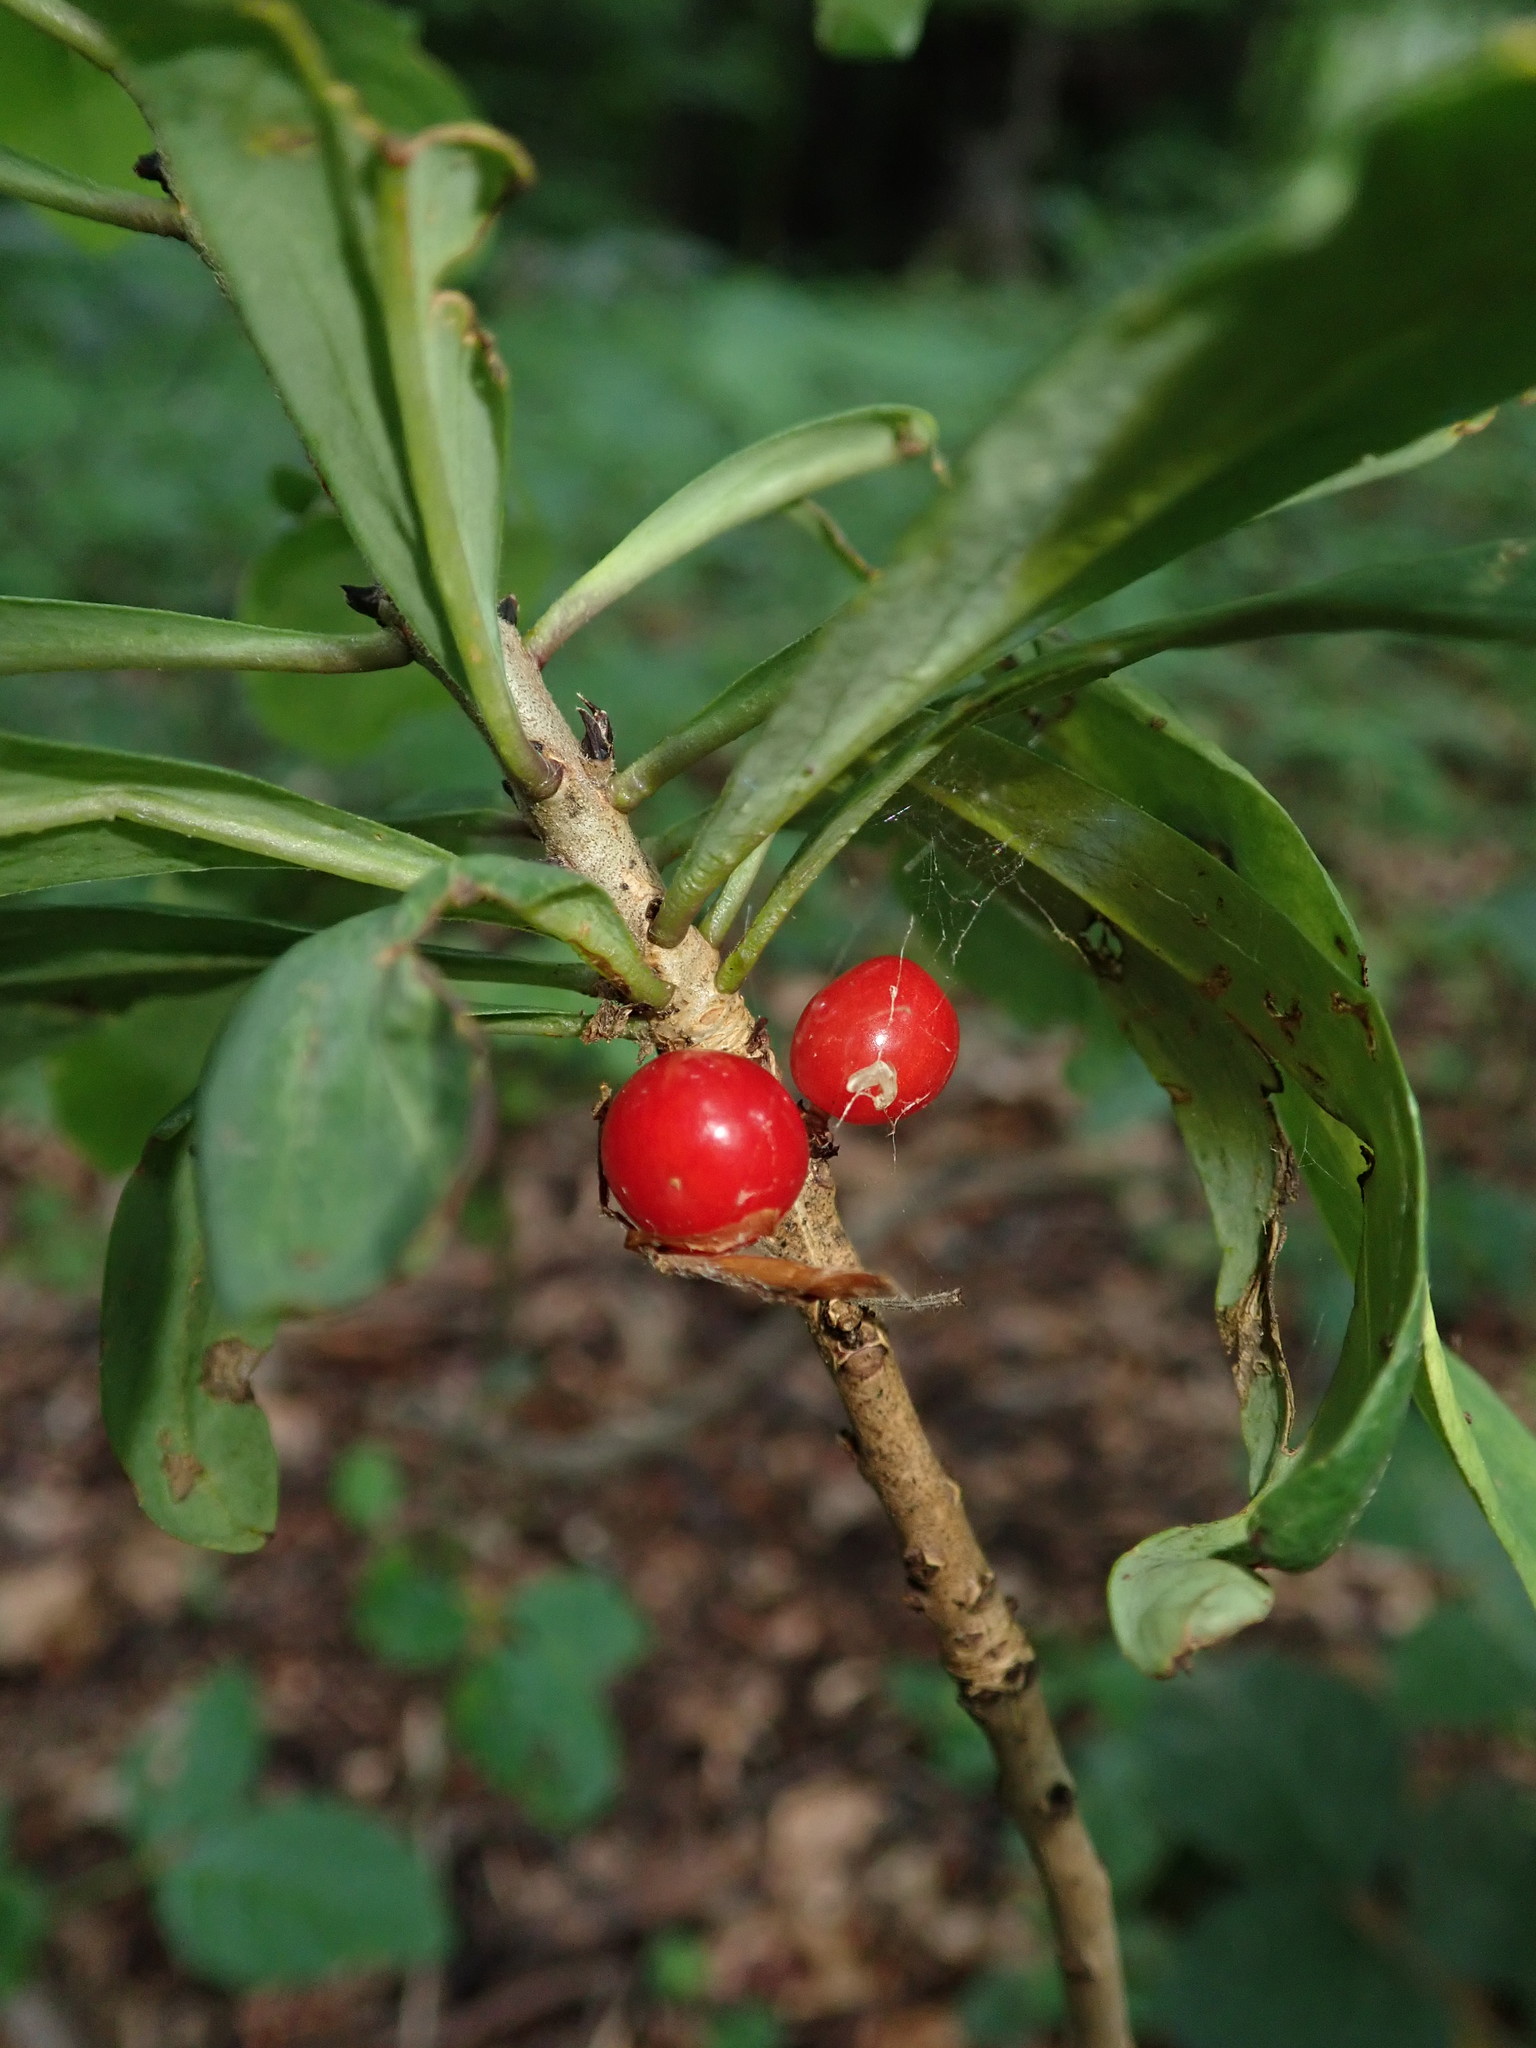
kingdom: Plantae
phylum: Tracheophyta
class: Magnoliopsida
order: Malvales
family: Thymelaeaceae
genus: Daphne
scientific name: Daphne mezereum
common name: Mezereon
